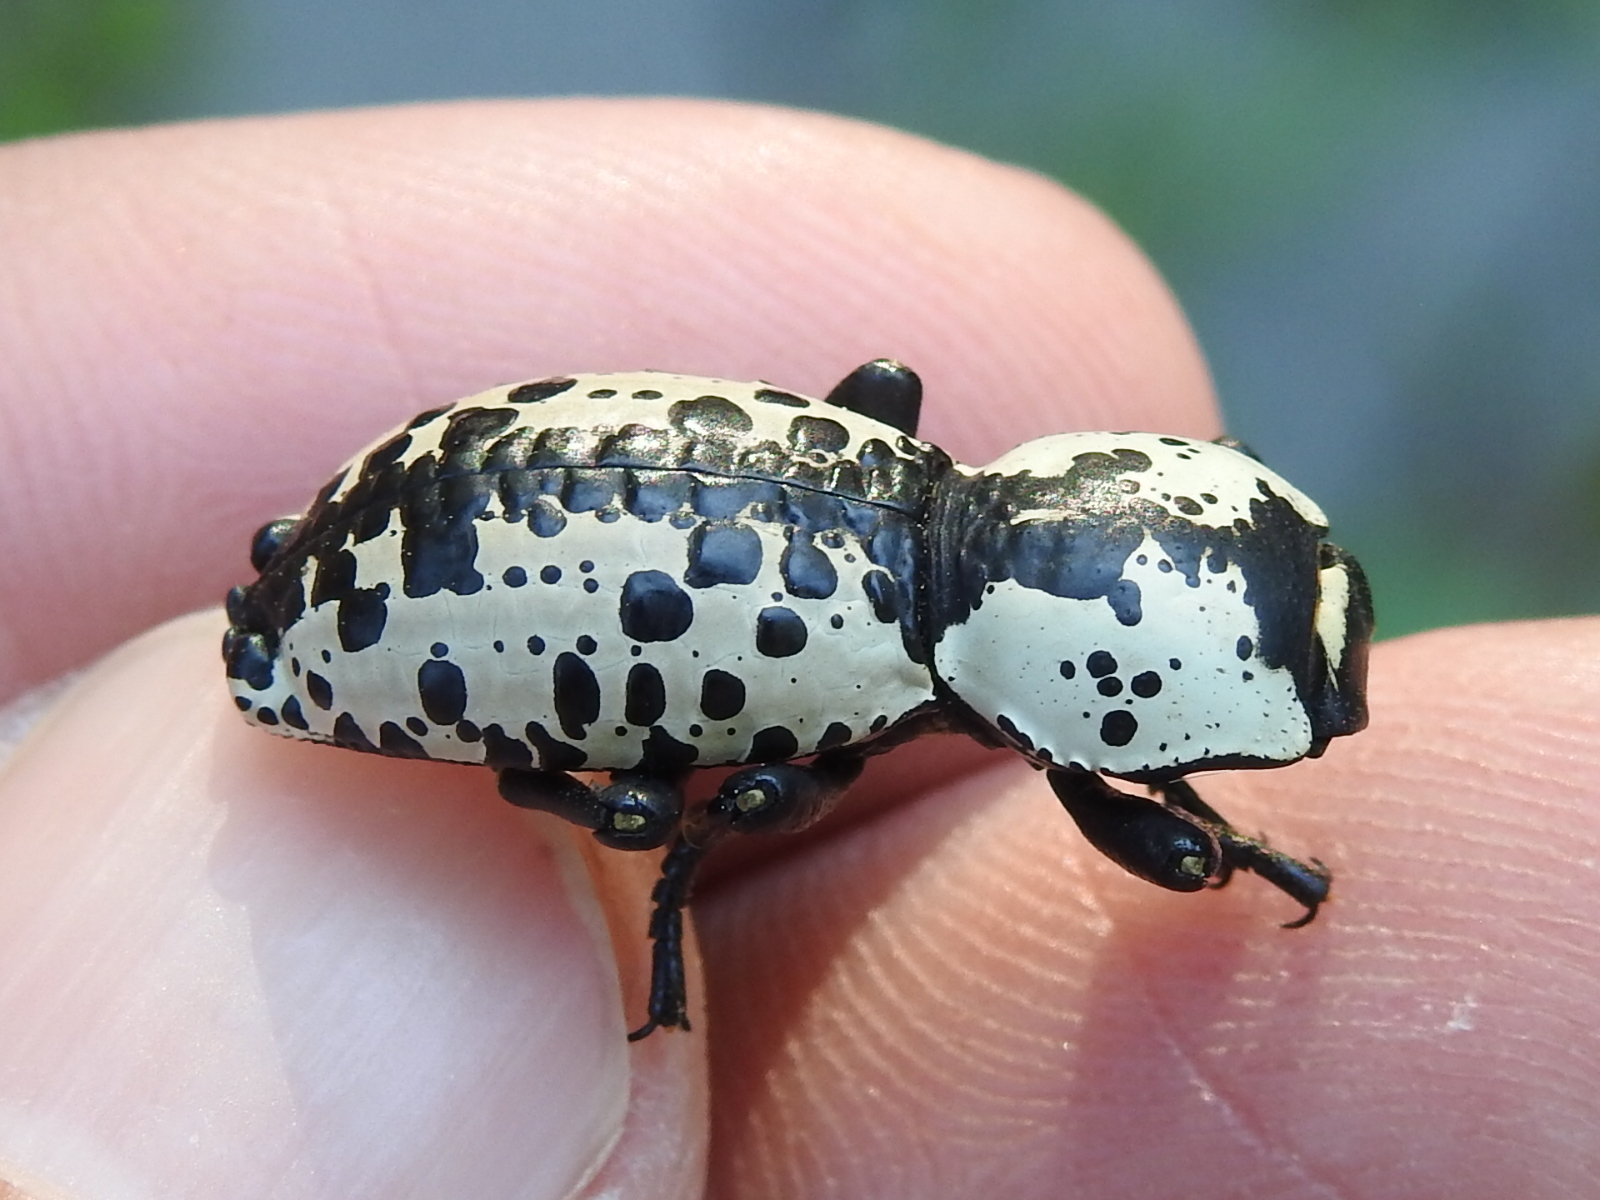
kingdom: Animalia
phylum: Arthropoda
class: Insecta
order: Coleoptera
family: Zopheridae
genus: Zopherus
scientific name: Zopherus nodulosus
